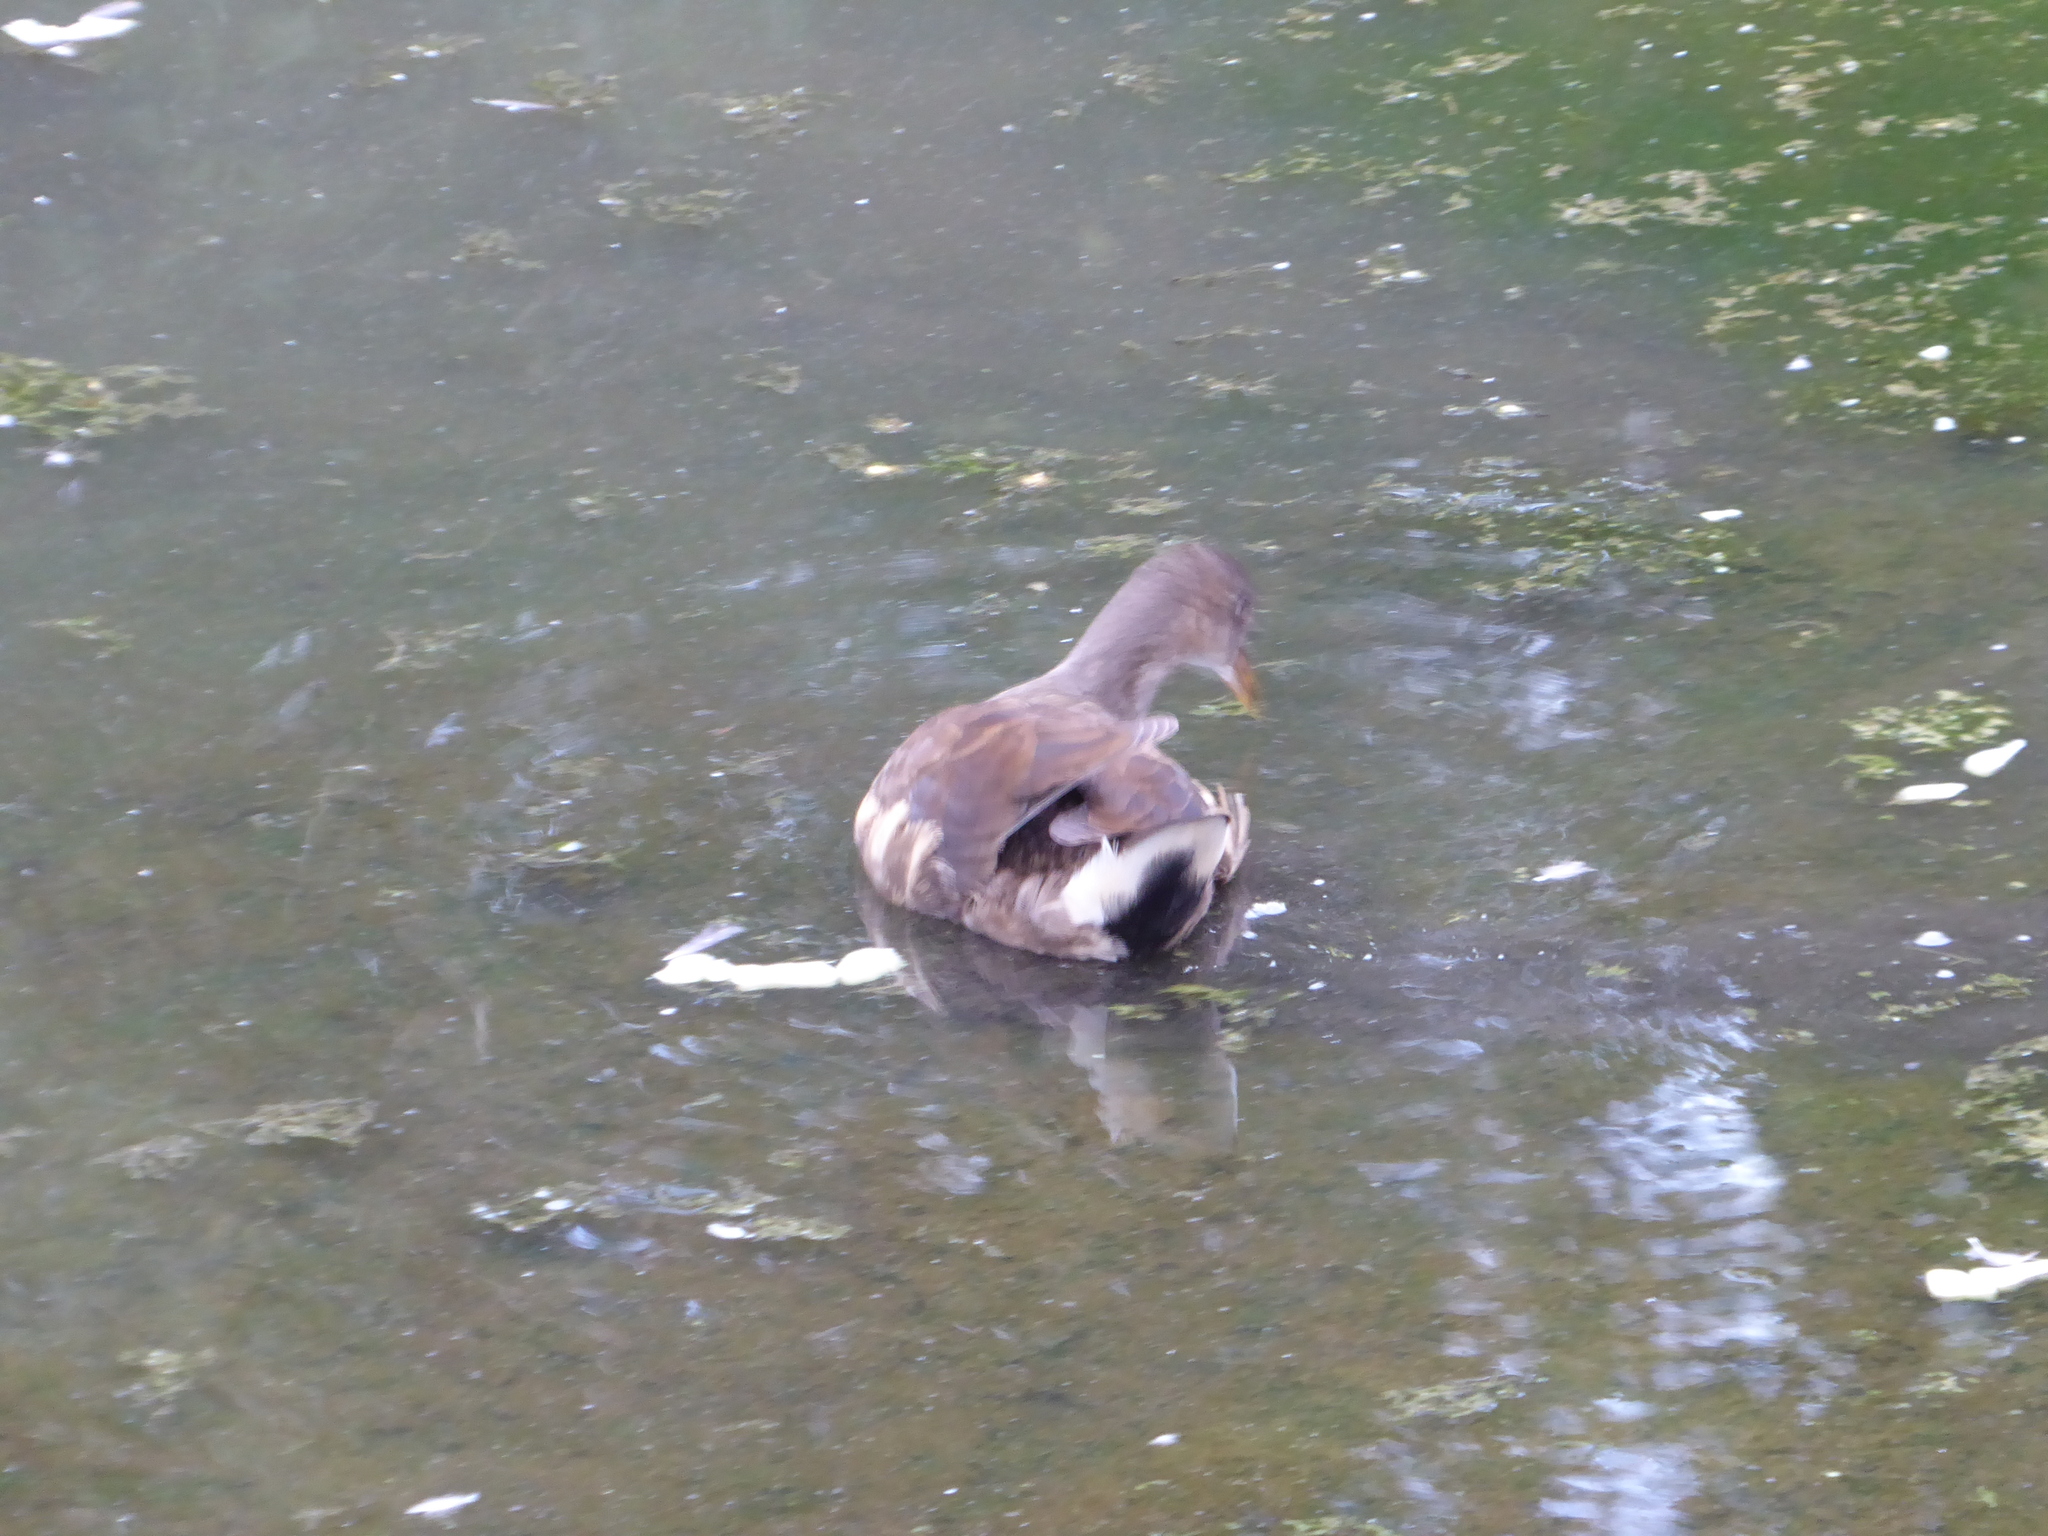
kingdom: Animalia
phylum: Chordata
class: Aves
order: Gruiformes
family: Rallidae
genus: Gallinula
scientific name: Gallinula chloropus
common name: Common moorhen
